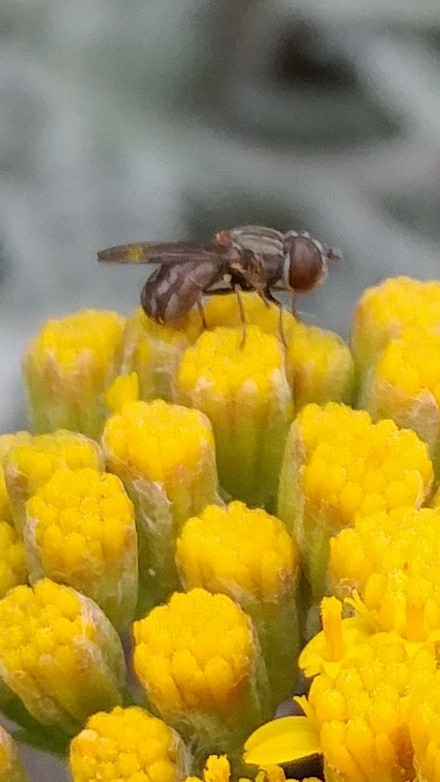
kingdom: Animalia
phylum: Arthropoda
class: Insecta
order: Diptera
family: Syrphidae
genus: Nausigaster
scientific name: Nausigaster unimaculata
